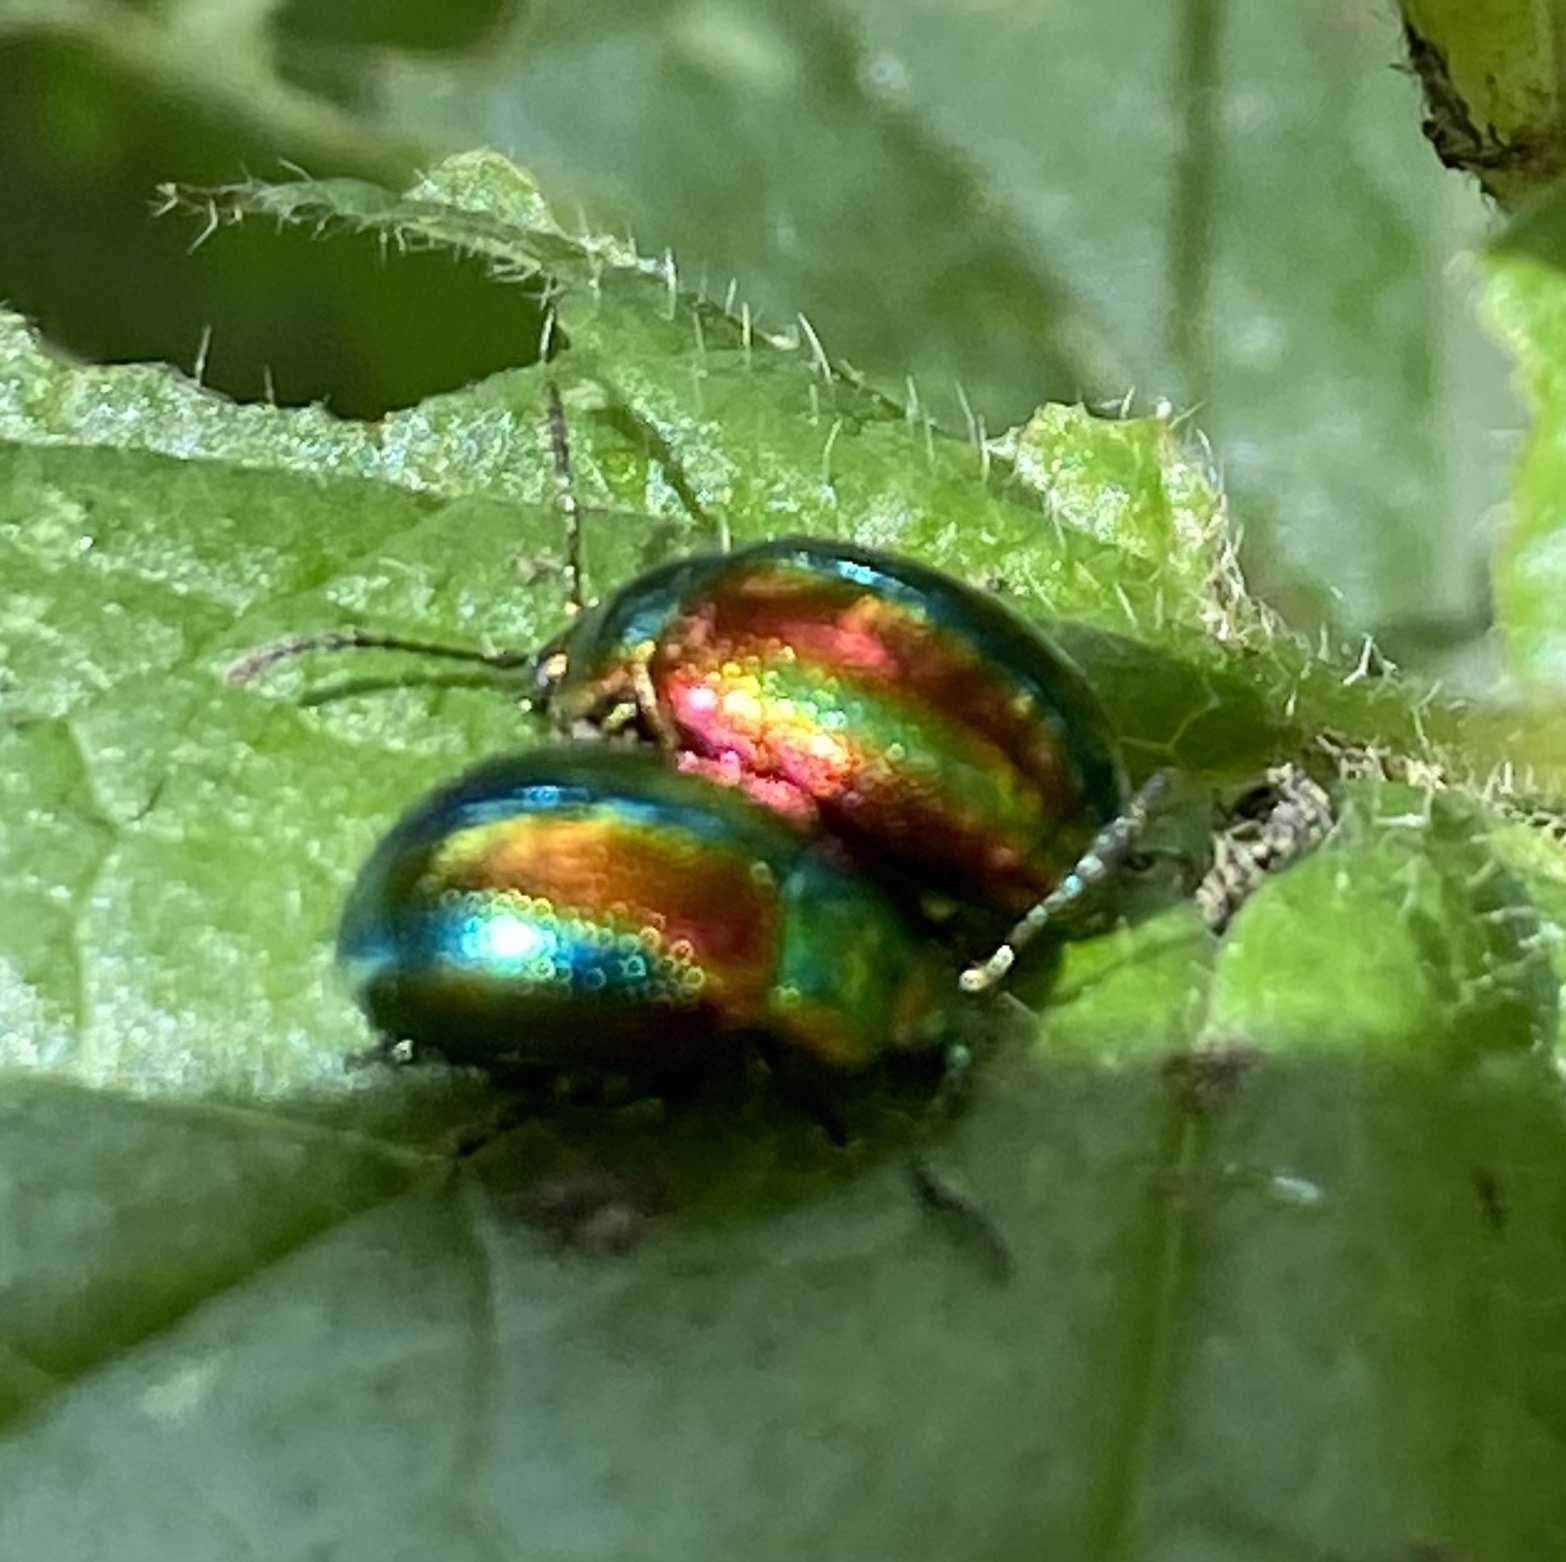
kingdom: Animalia
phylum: Arthropoda
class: Insecta
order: Coleoptera
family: Chrysomelidae
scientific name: Chrysomelidae
